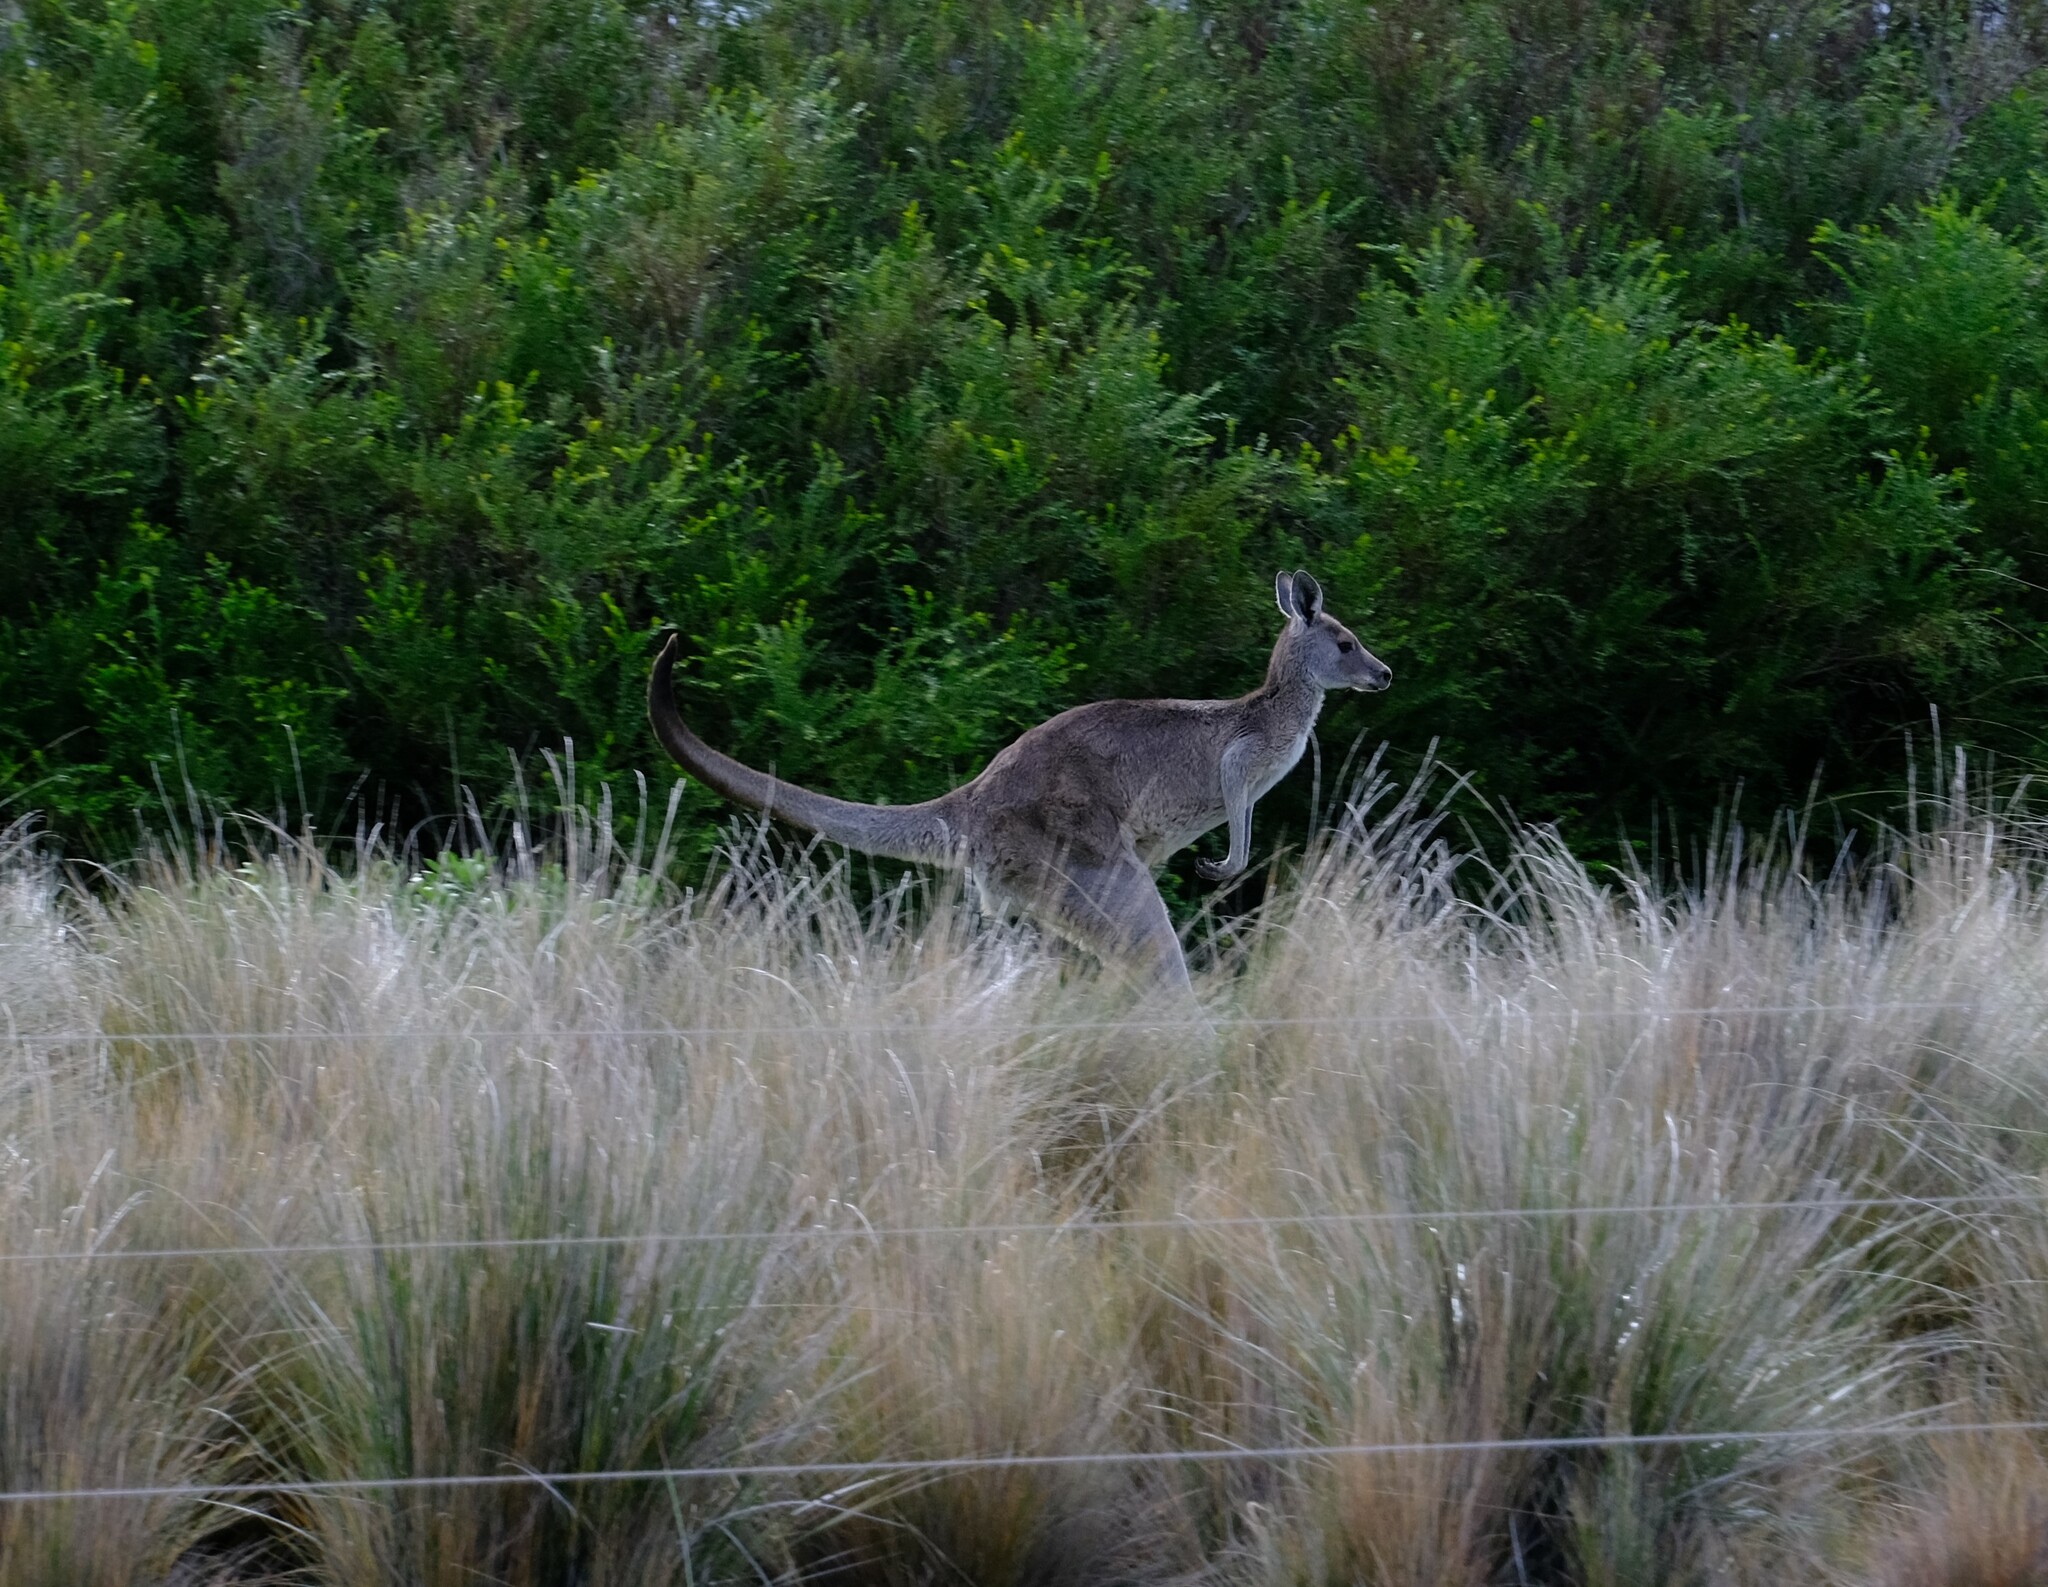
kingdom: Animalia
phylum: Chordata
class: Mammalia
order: Diprotodontia
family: Macropodidae
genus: Macropus
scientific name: Macropus giganteus
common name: Eastern grey kangaroo
